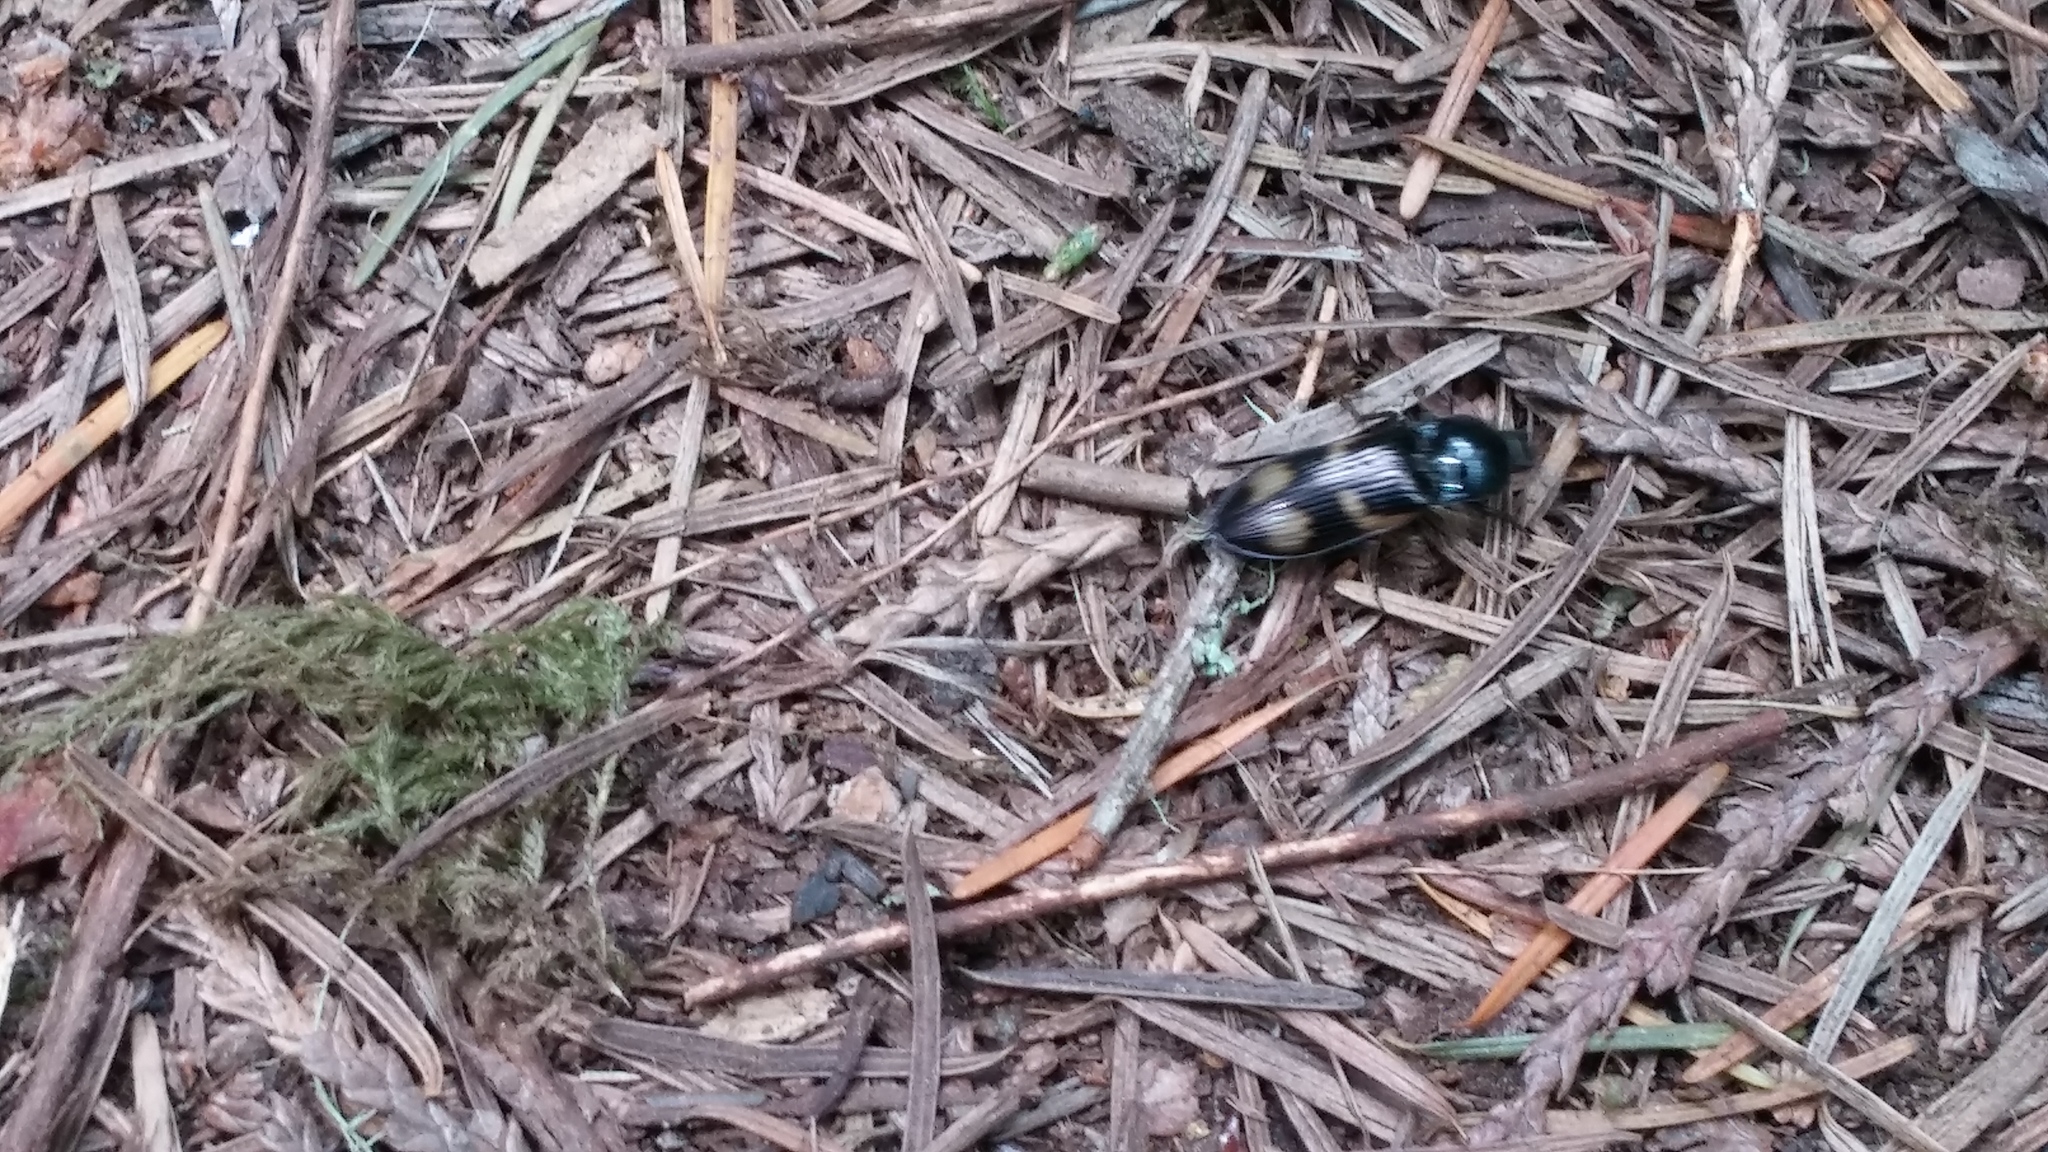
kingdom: Animalia
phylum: Arthropoda
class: Insecta
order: Coleoptera
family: Elateridae
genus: Selatosomus
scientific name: Selatosomus suckleyi
